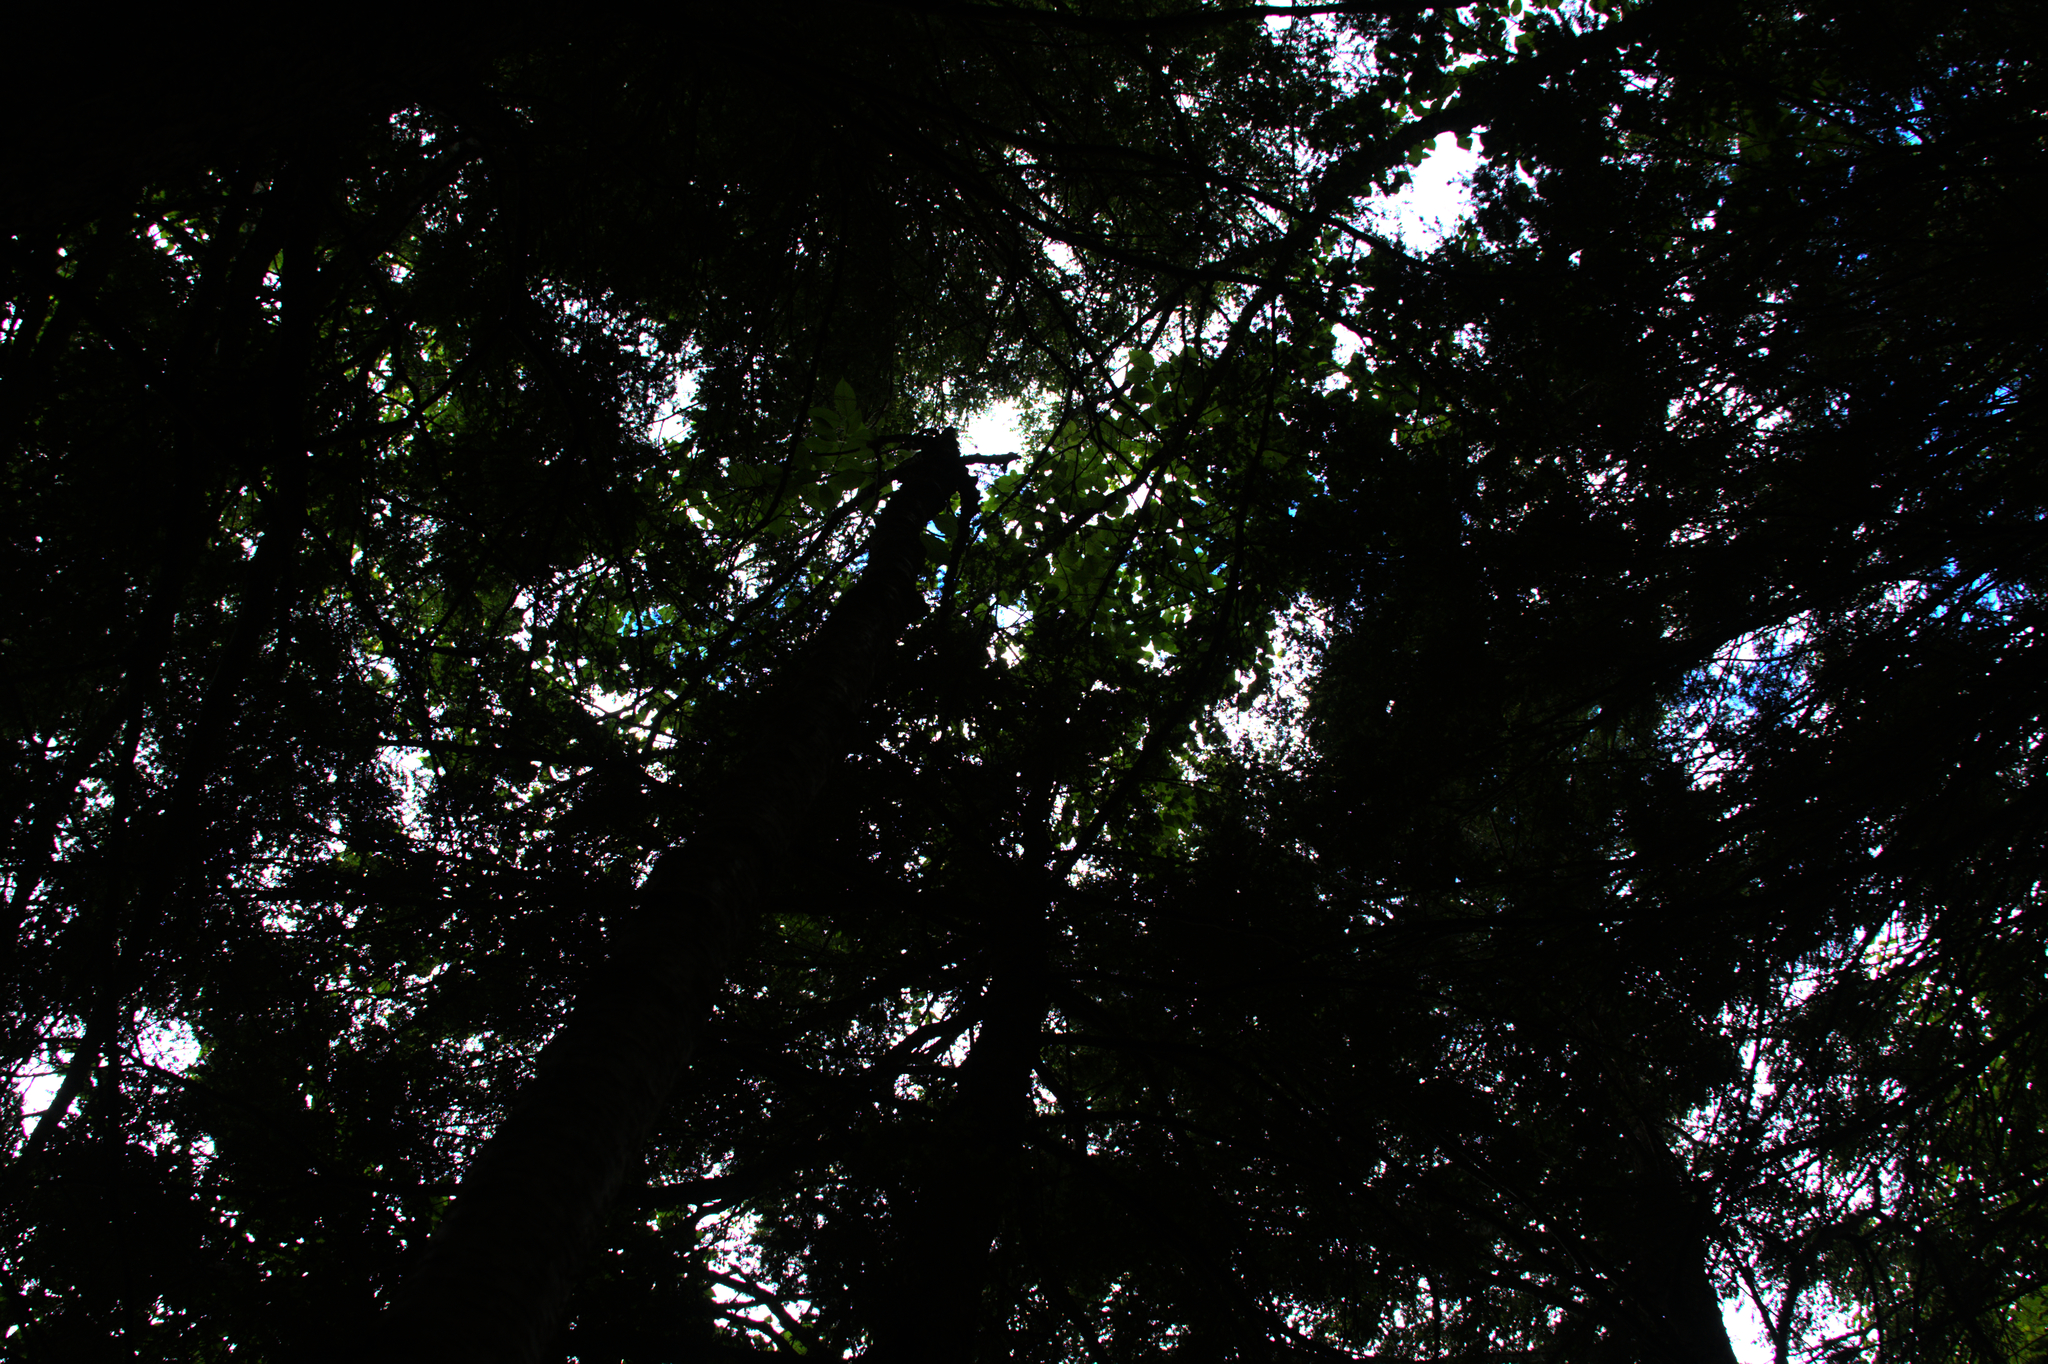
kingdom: Plantae
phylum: Tracheophyta
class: Magnoliopsida
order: Fagales
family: Betulaceae
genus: Betula
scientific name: Betula alleghaniensis
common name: Yellow birch
